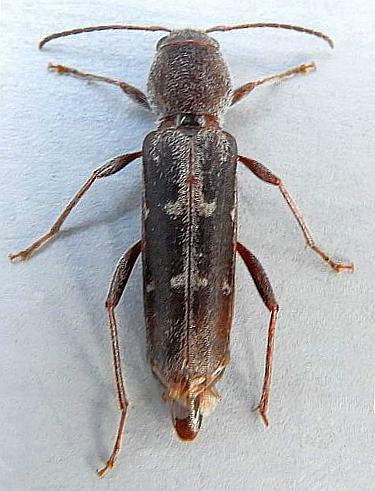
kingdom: Animalia
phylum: Arthropoda
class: Insecta
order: Coleoptera
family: Cerambycidae
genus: Xylotrechus
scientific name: Xylotrechus sagittatus
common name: Arrowhead borer
